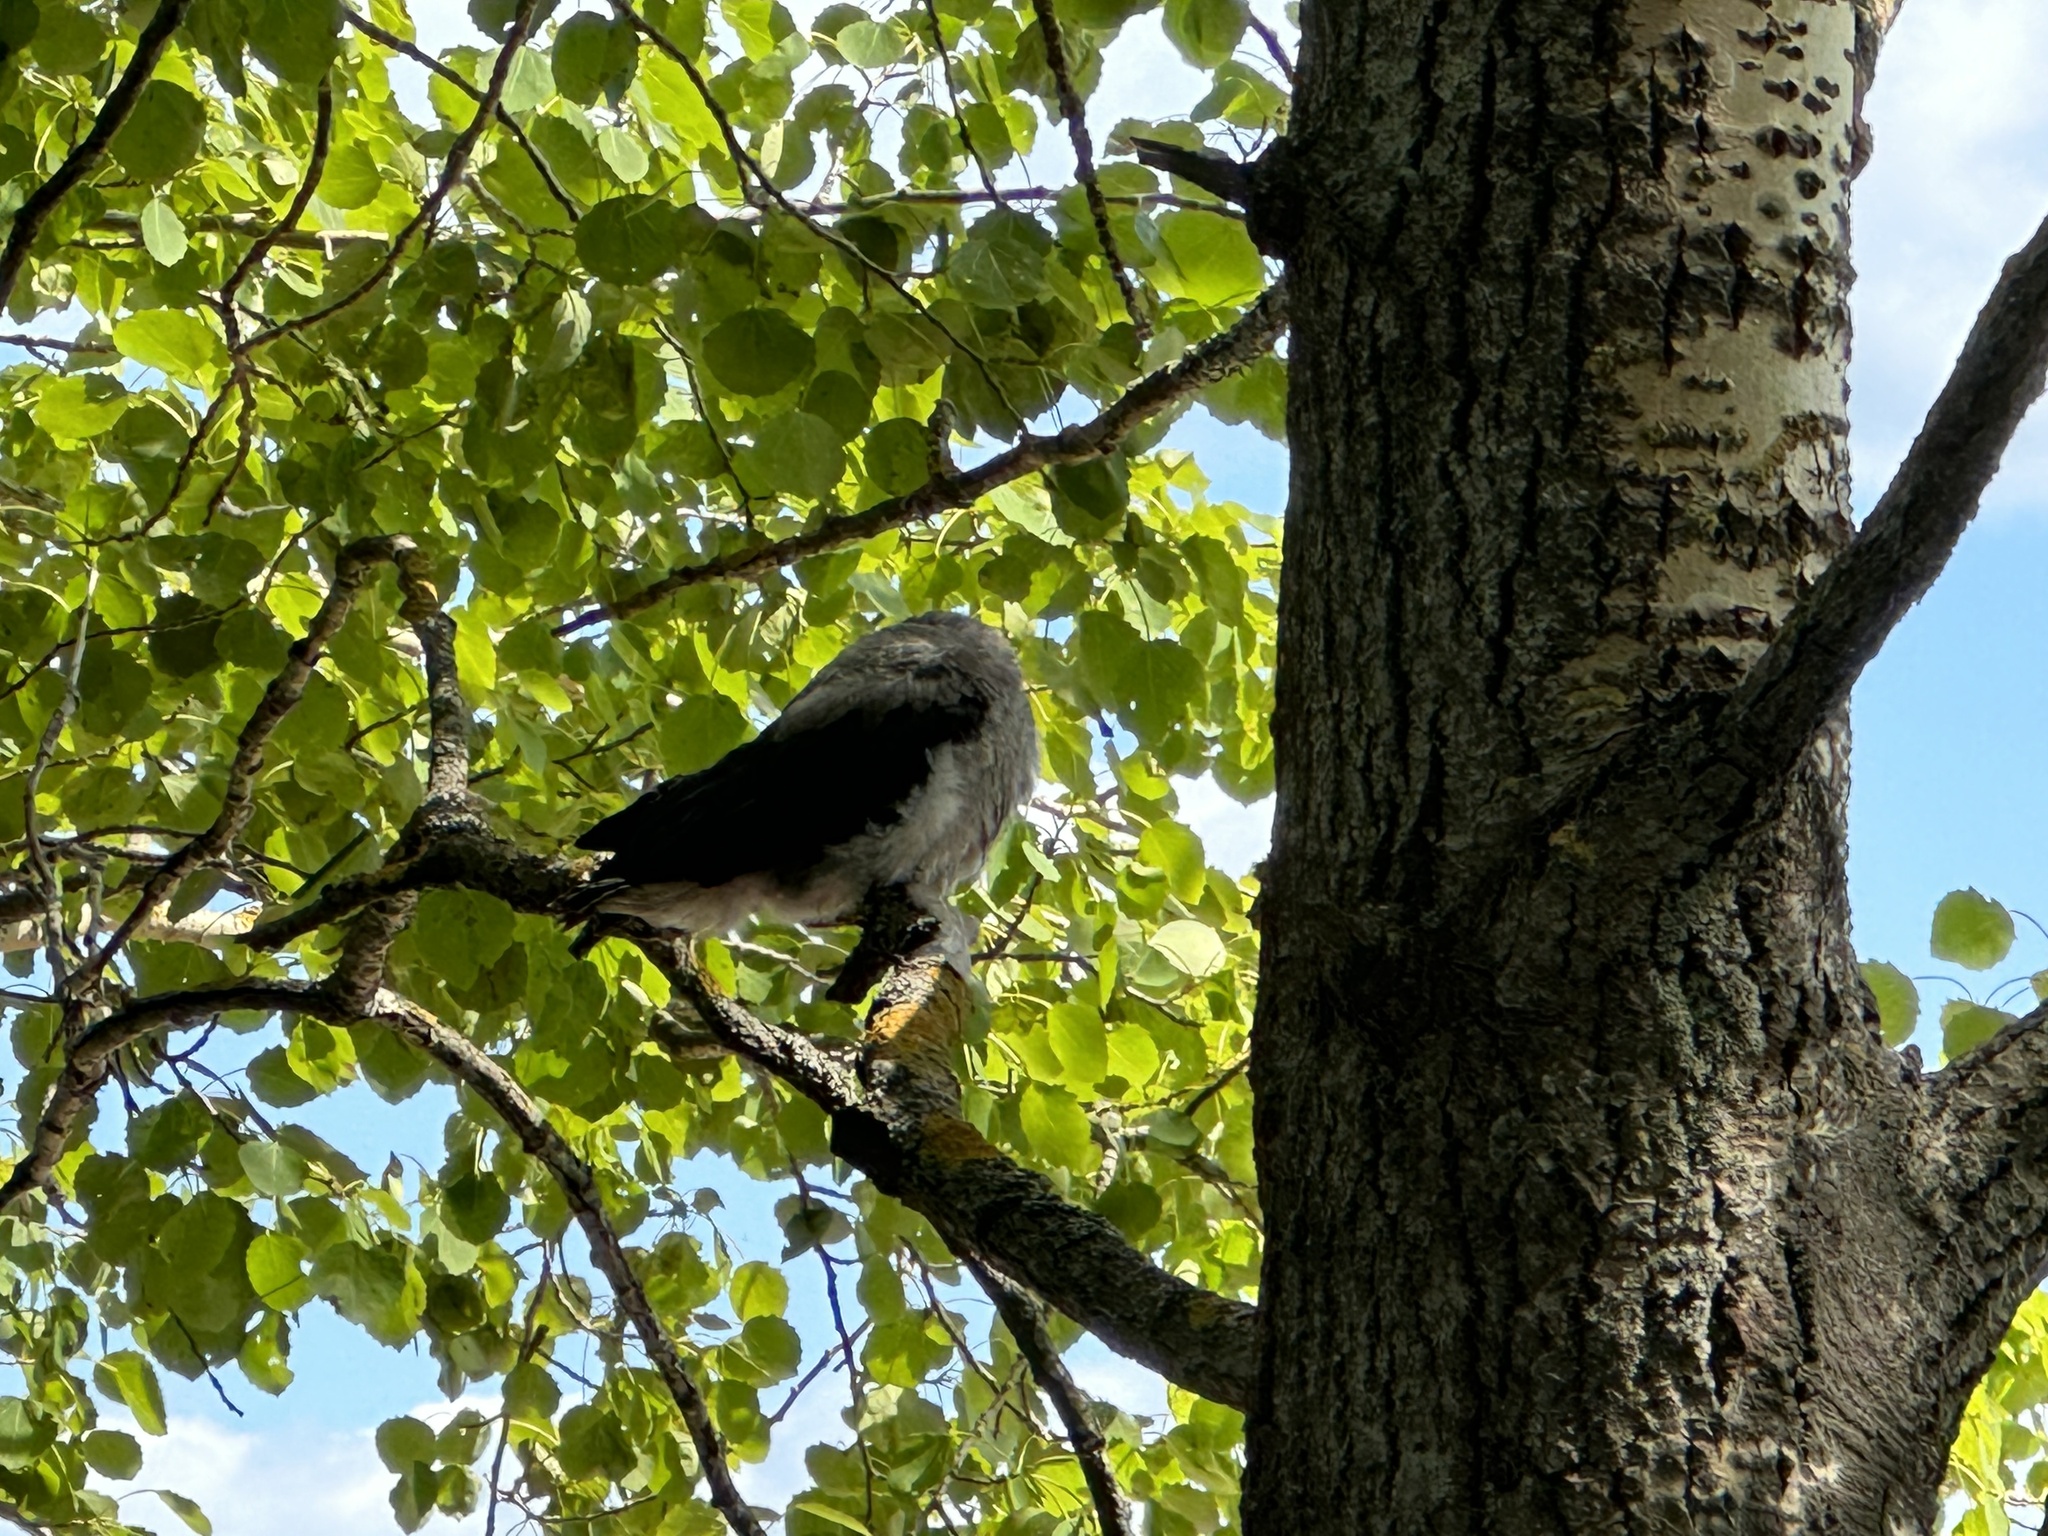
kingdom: Animalia
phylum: Chordata
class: Aves
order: Passeriformes
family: Corvidae
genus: Corvus
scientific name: Corvus cornix
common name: Hooded crow
